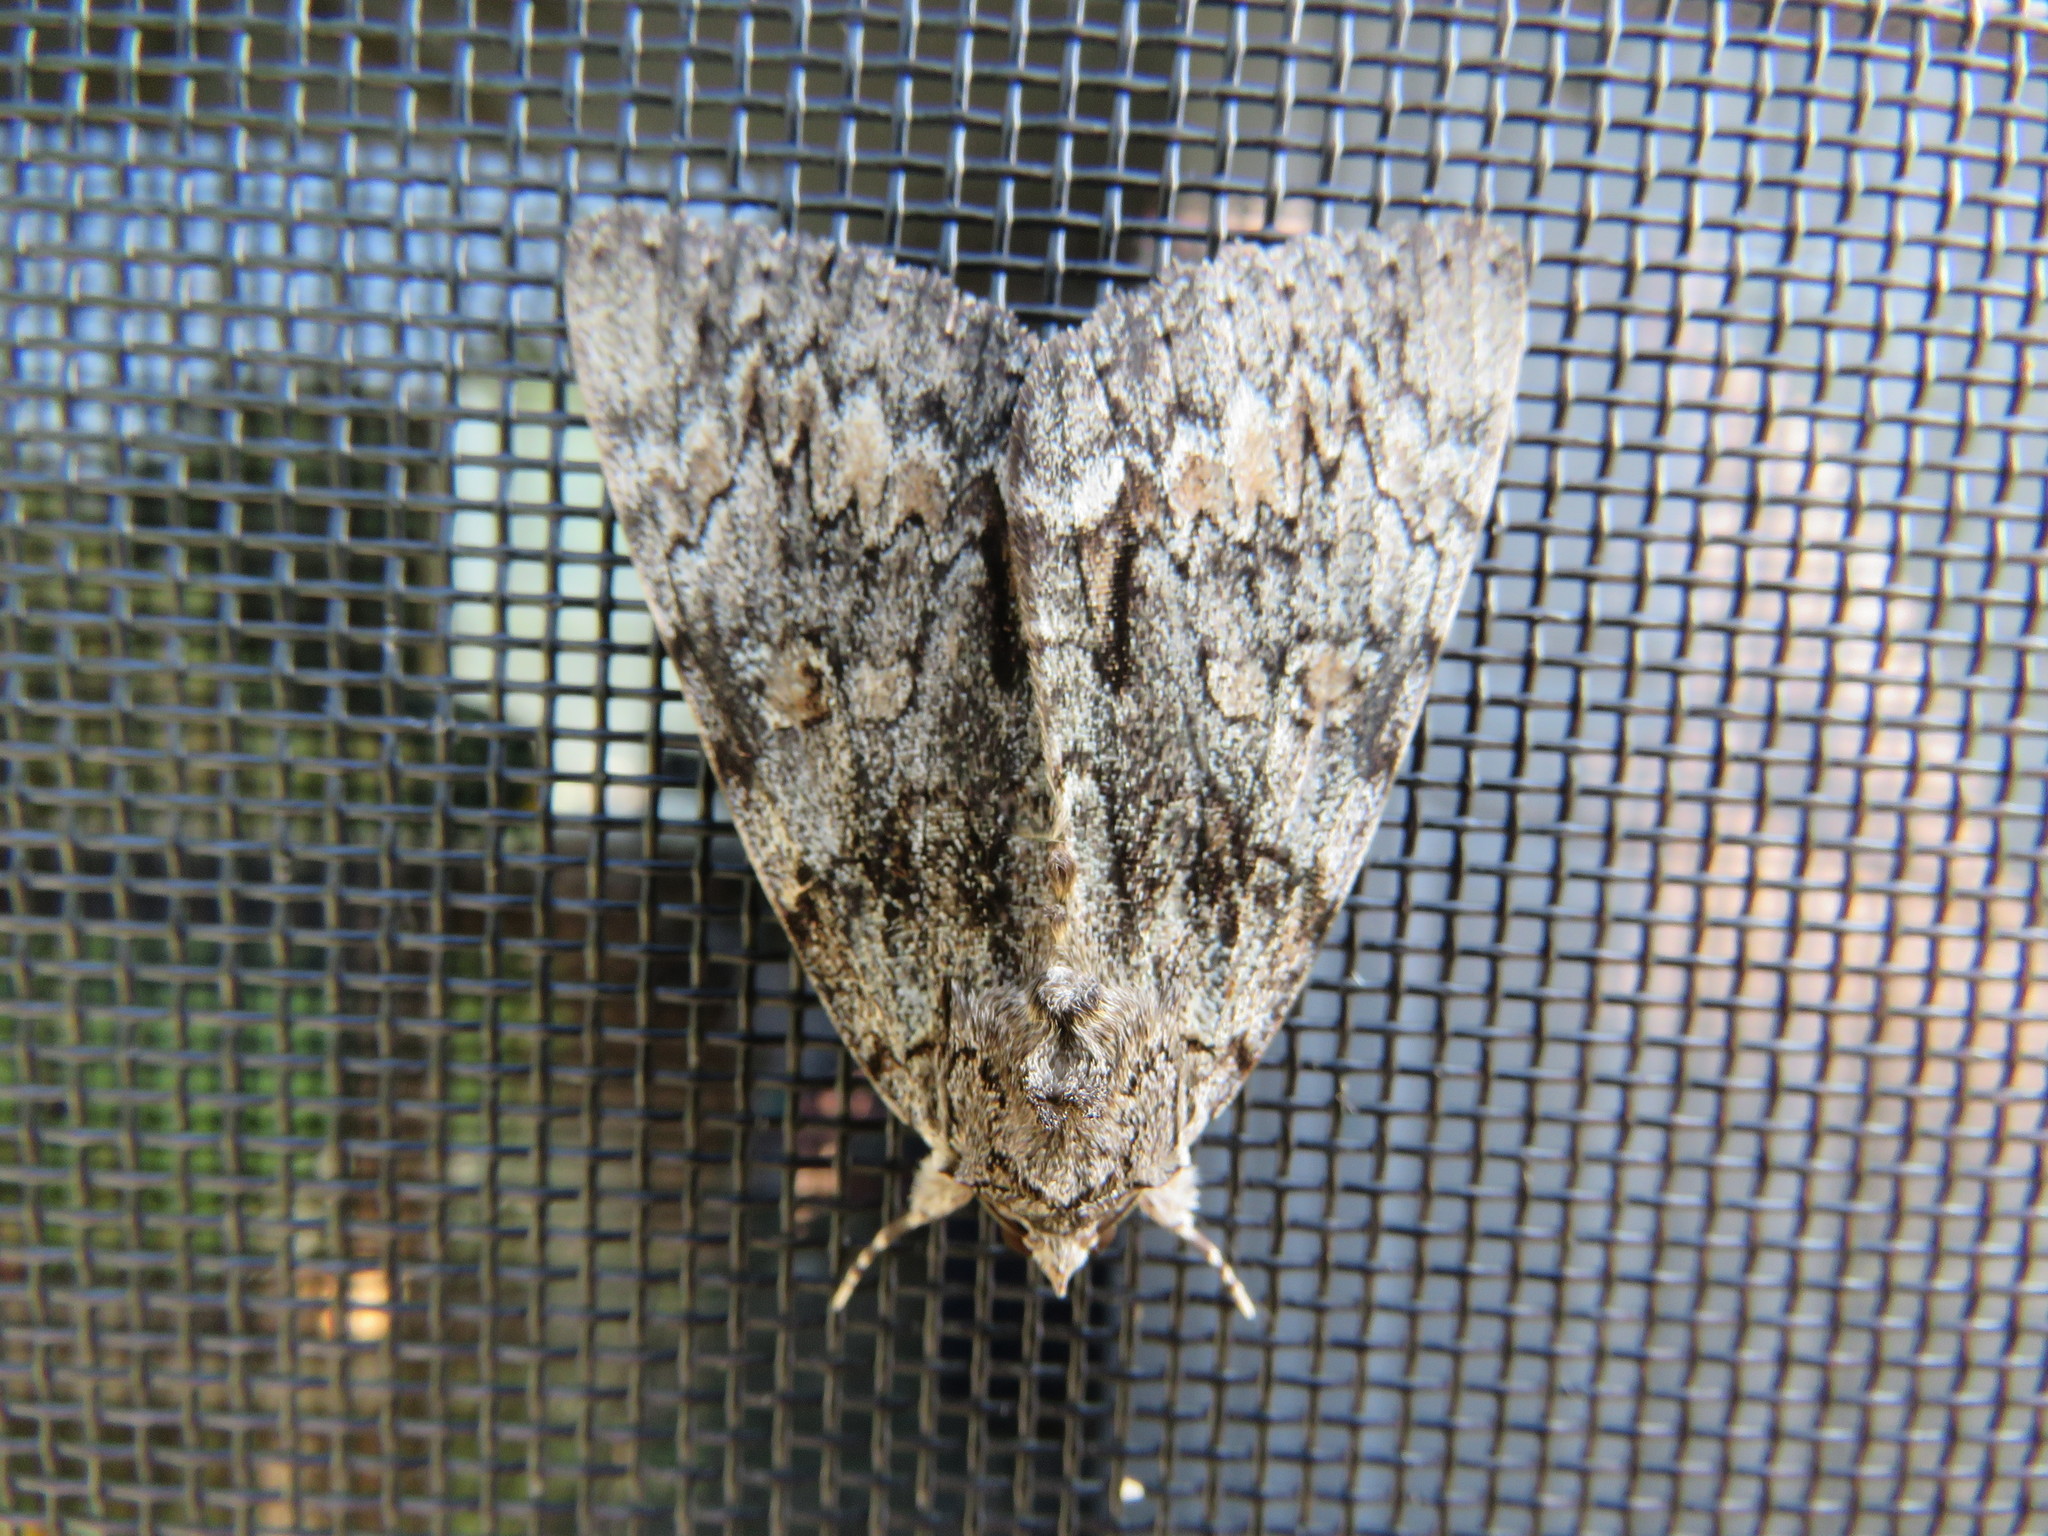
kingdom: Animalia
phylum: Arthropoda
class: Insecta
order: Lepidoptera
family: Erebidae
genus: Catocala
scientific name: Catocala palaeogama
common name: Oldwife underwing
